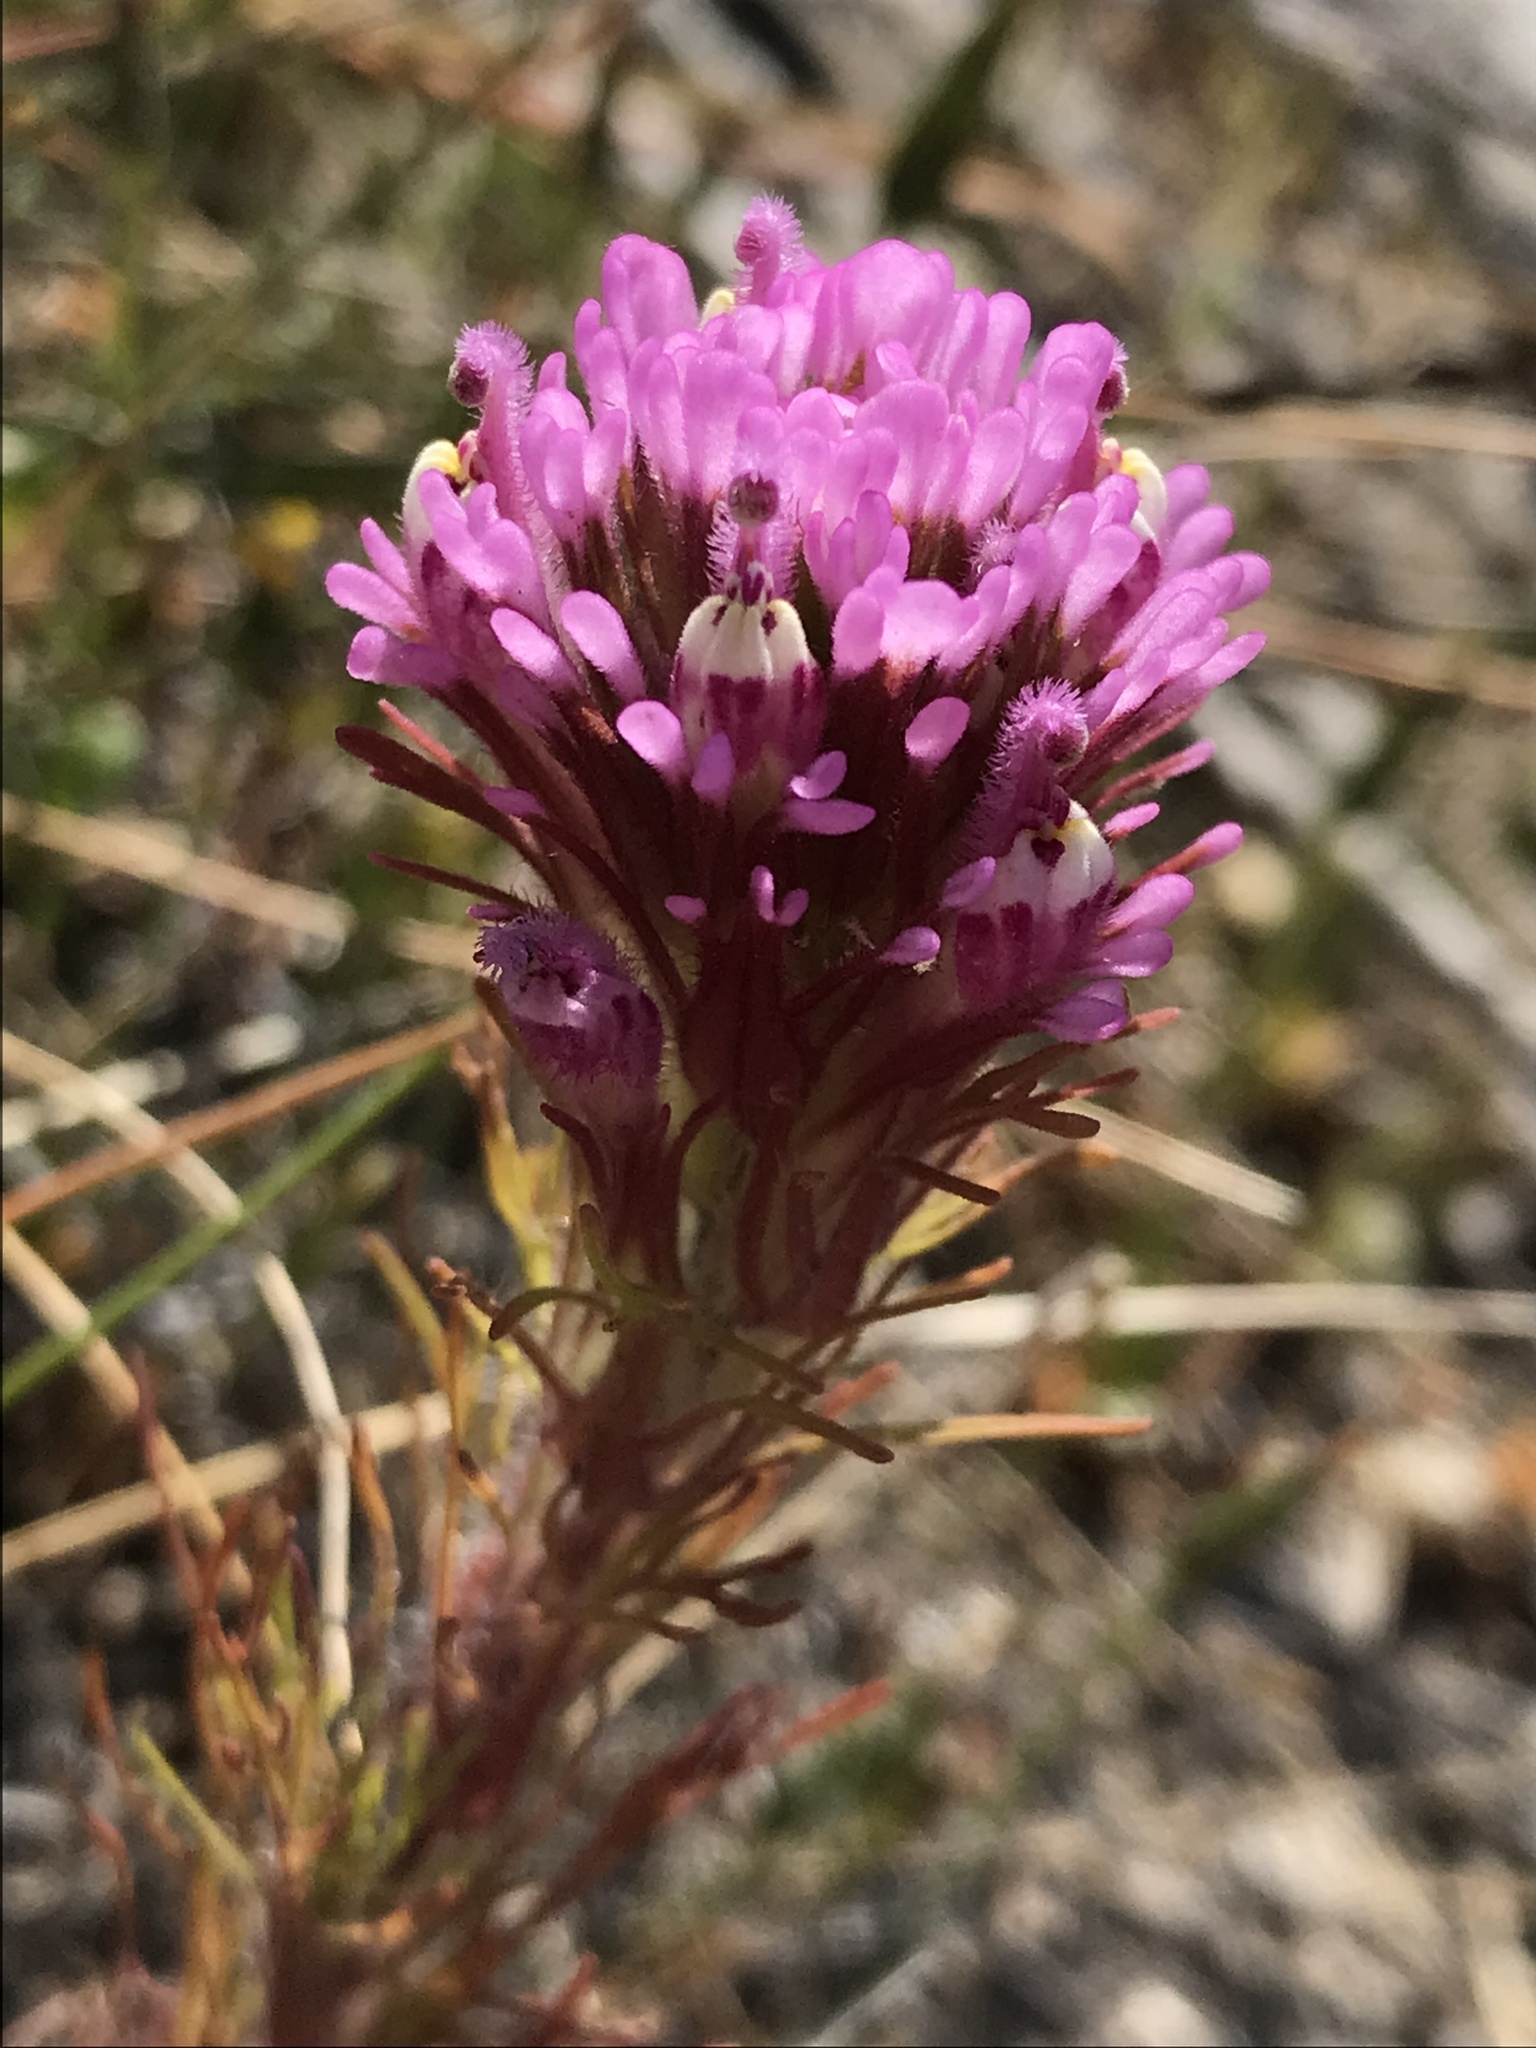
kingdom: Plantae
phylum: Tracheophyta
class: Magnoliopsida
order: Lamiales
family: Orobanchaceae
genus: Castilleja
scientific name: Castilleja exserta
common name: Purple owl-clover
